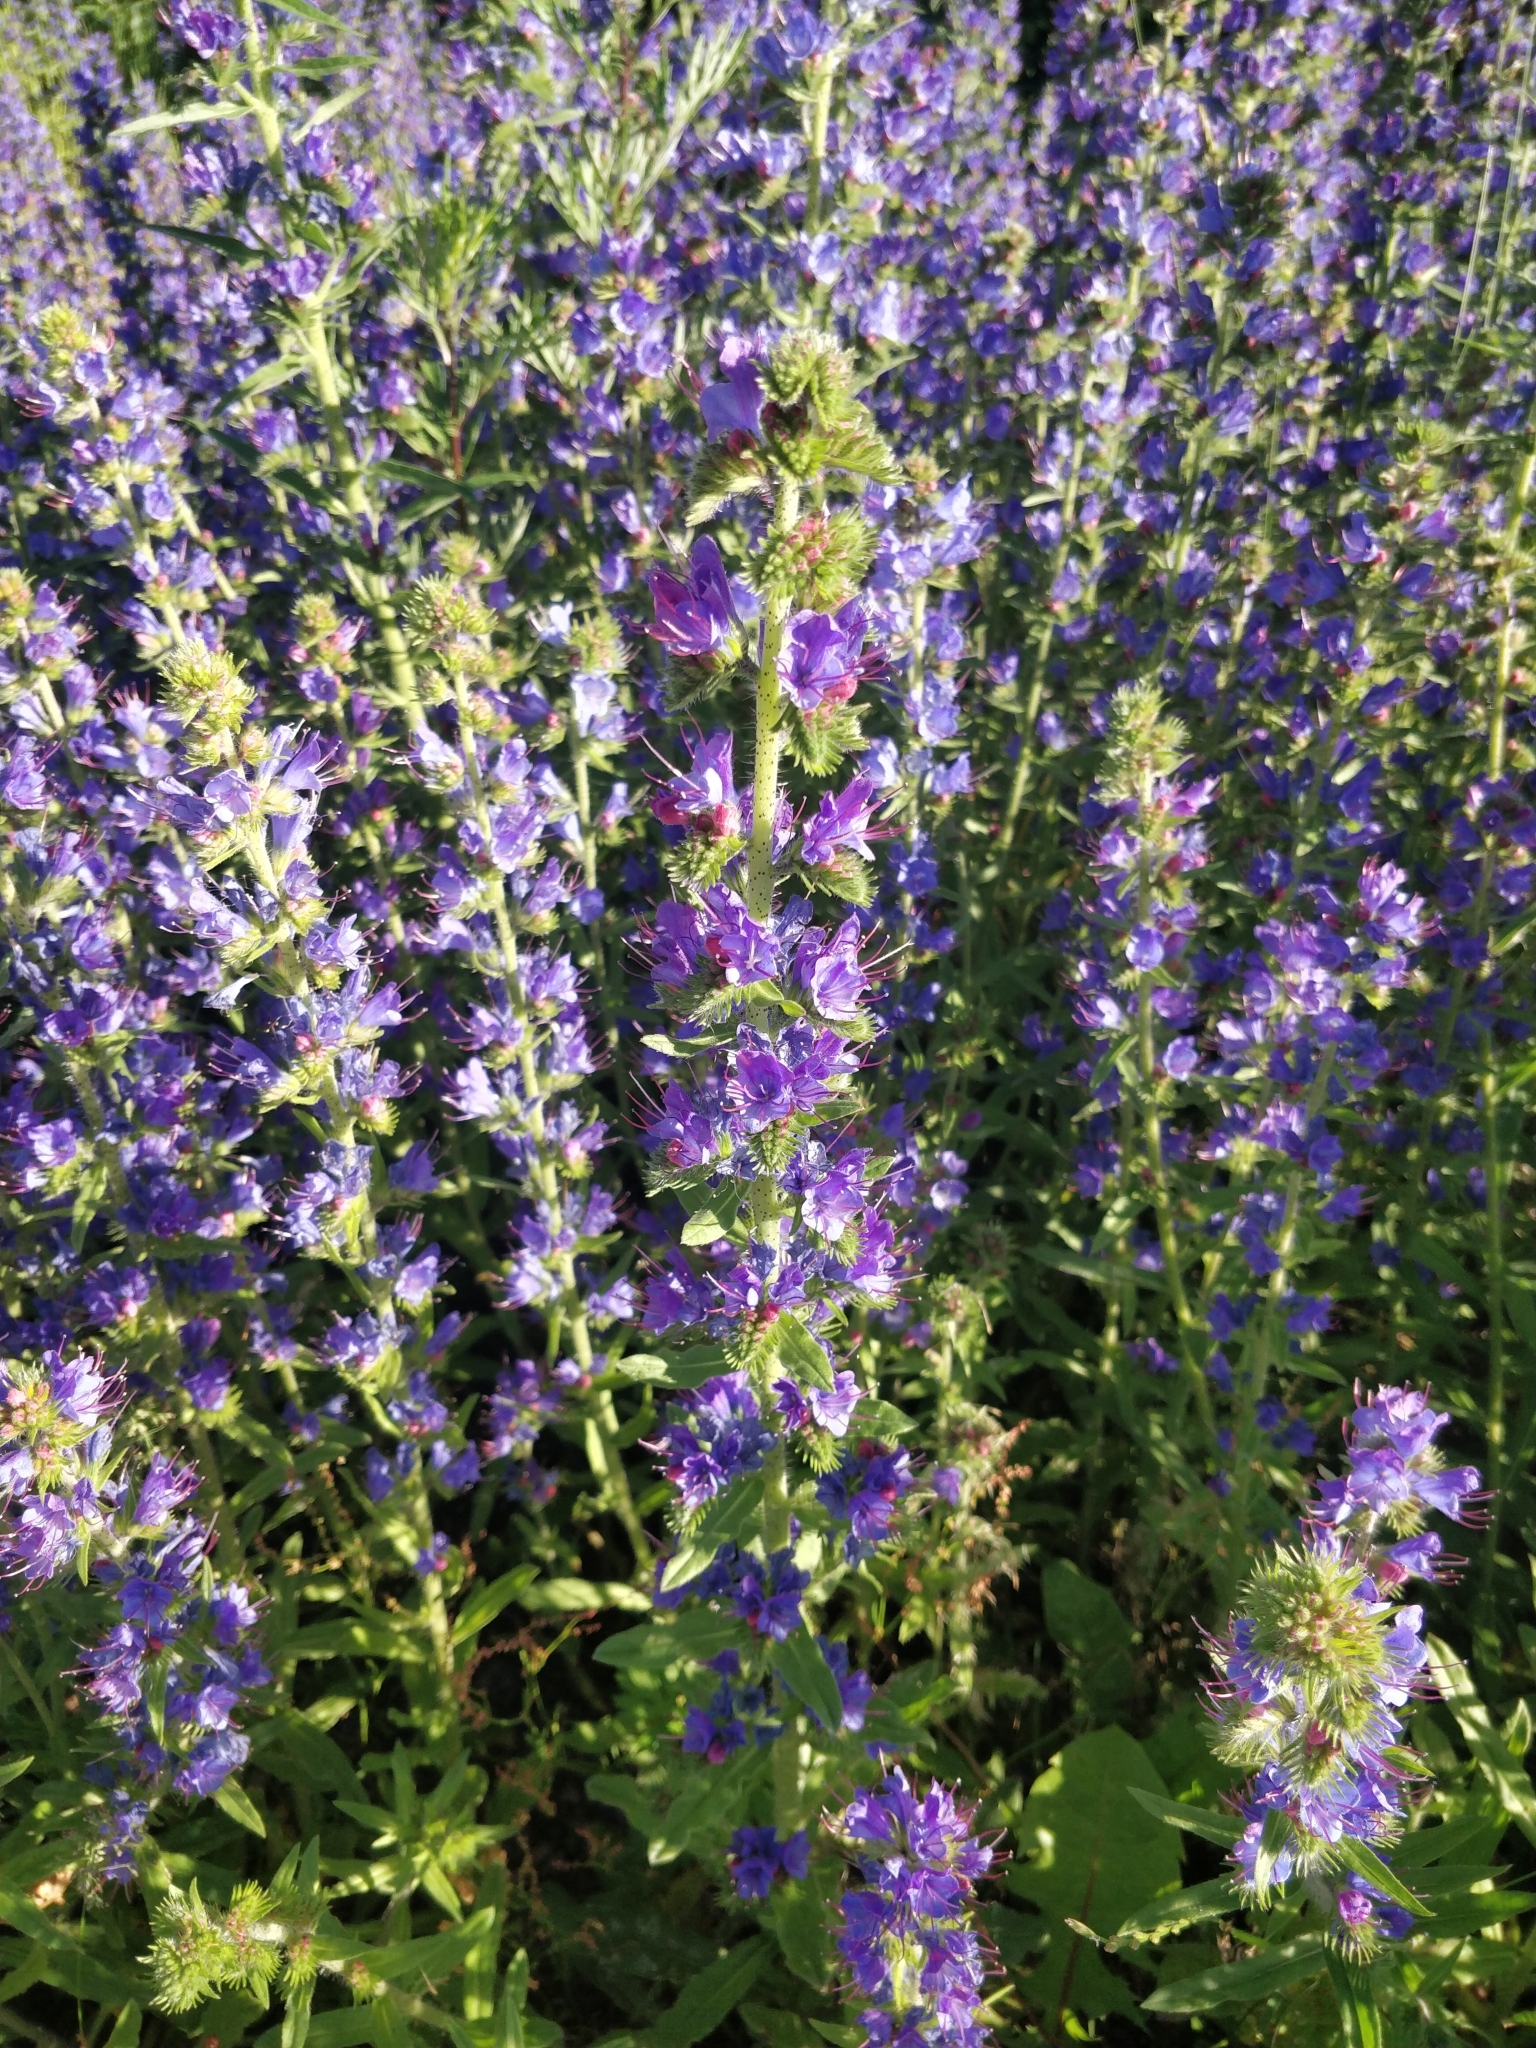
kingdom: Plantae
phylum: Tracheophyta
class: Magnoliopsida
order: Boraginales
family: Boraginaceae
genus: Echium
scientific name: Echium vulgare
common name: Common viper's bugloss
